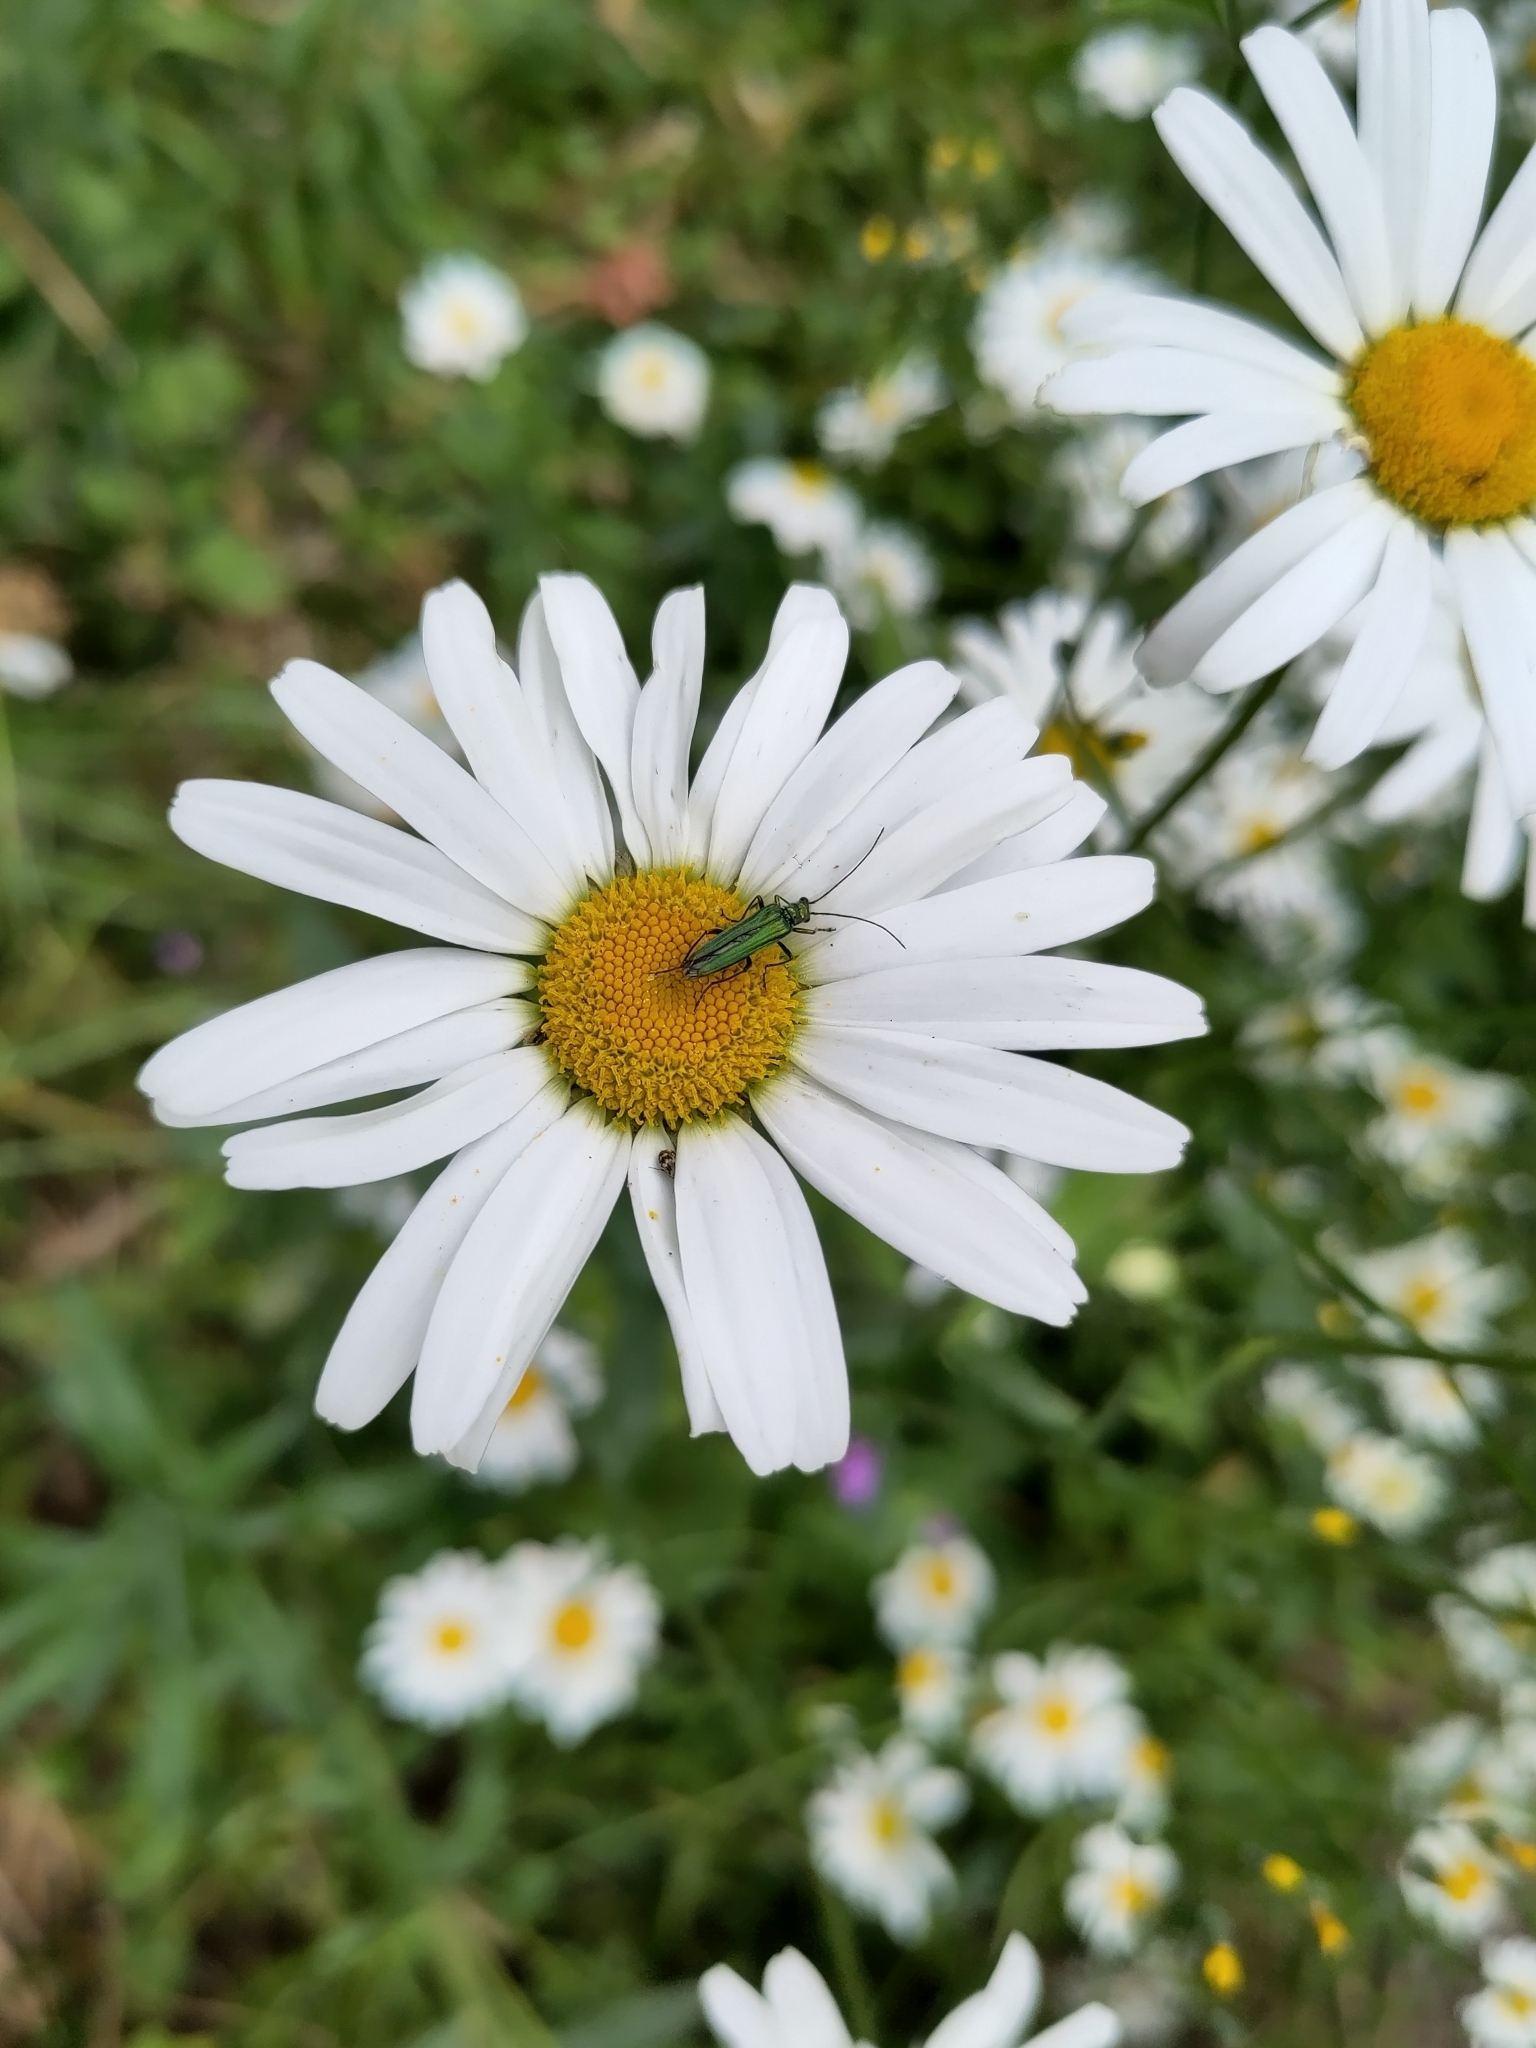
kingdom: Animalia
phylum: Arthropoda
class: Insecta
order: Coleoptera
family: Oedemeridae
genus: Oedemera
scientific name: Oedemera nobilis
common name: Swollen-thighed beetle
